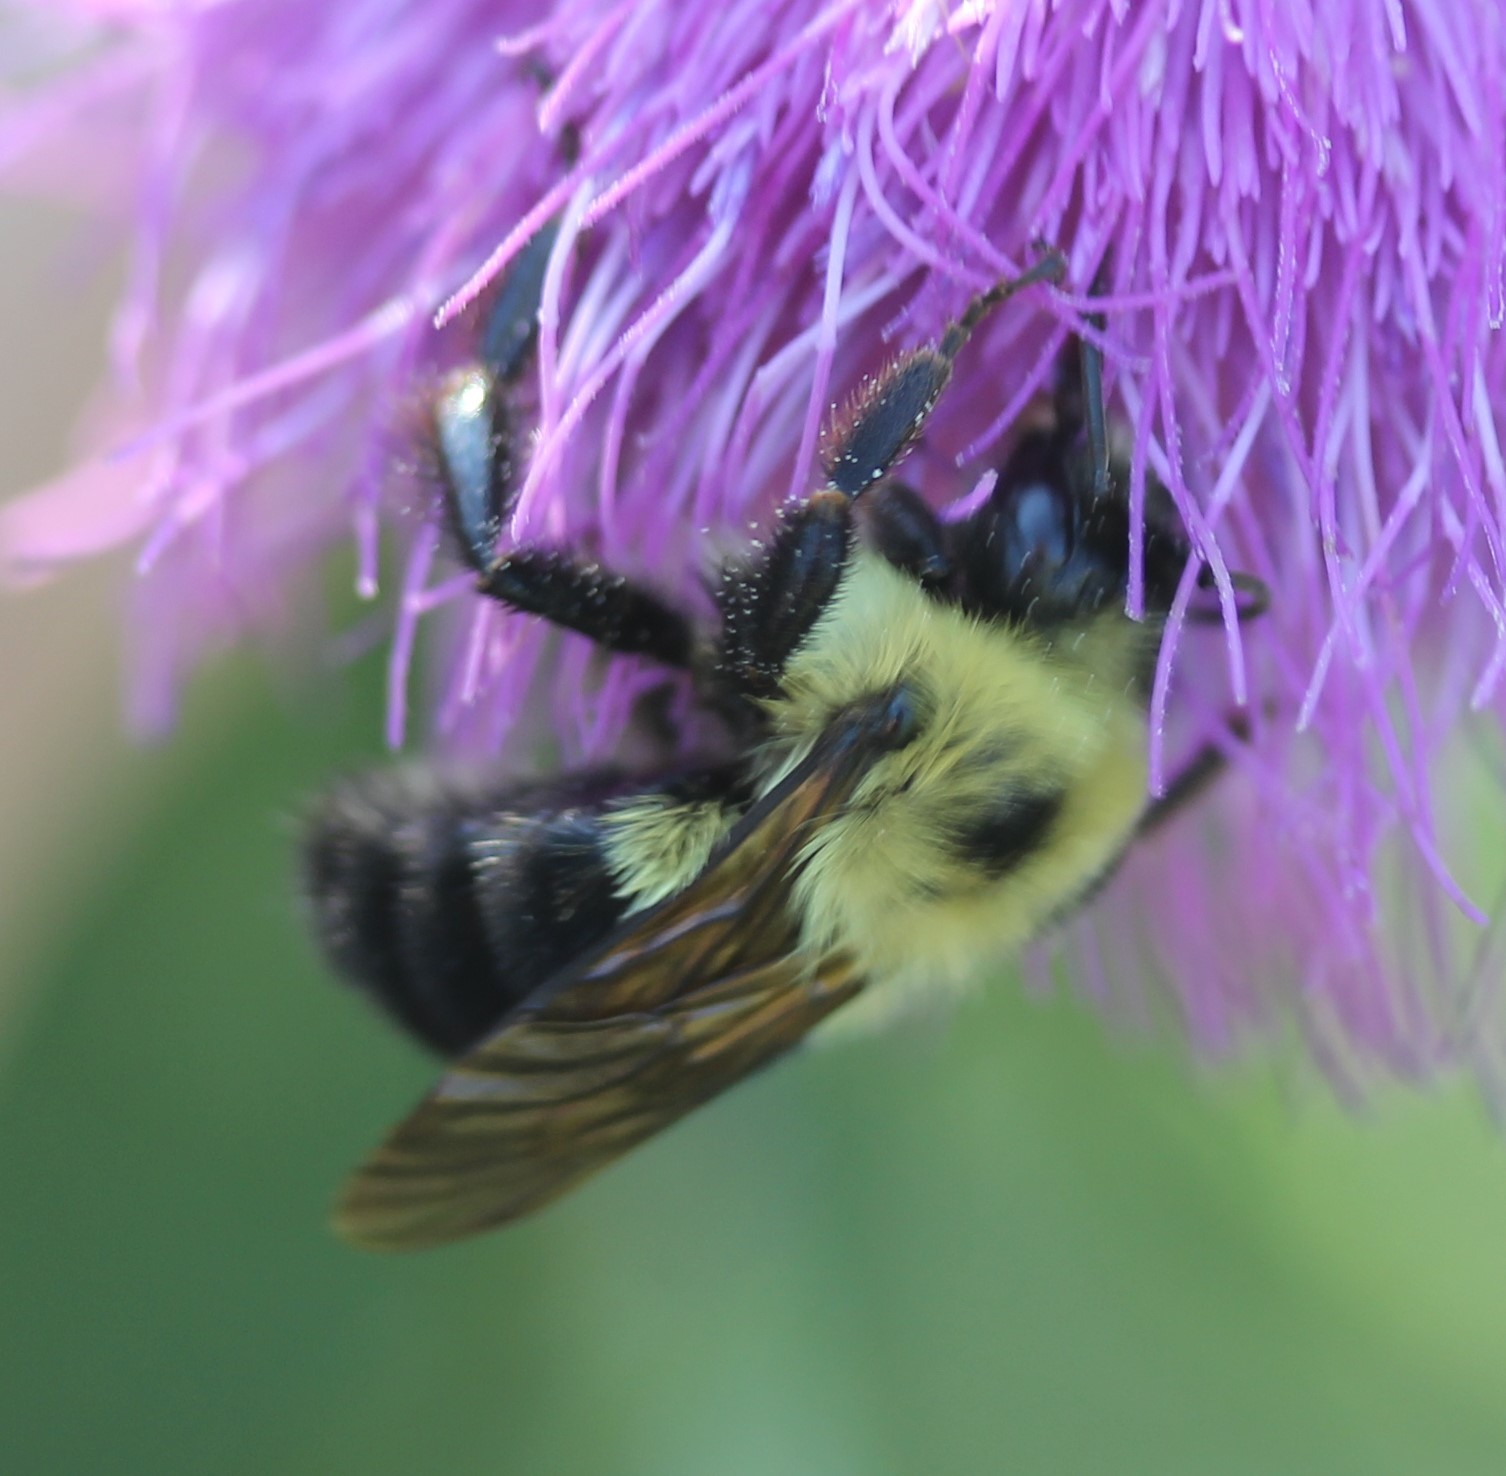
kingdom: Animalia
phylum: Arthropoda
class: Insecta
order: Hymenoptera
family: Apidae
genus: Bombus
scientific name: Bombus bimaculatus
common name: Two-spotted bumble bee
